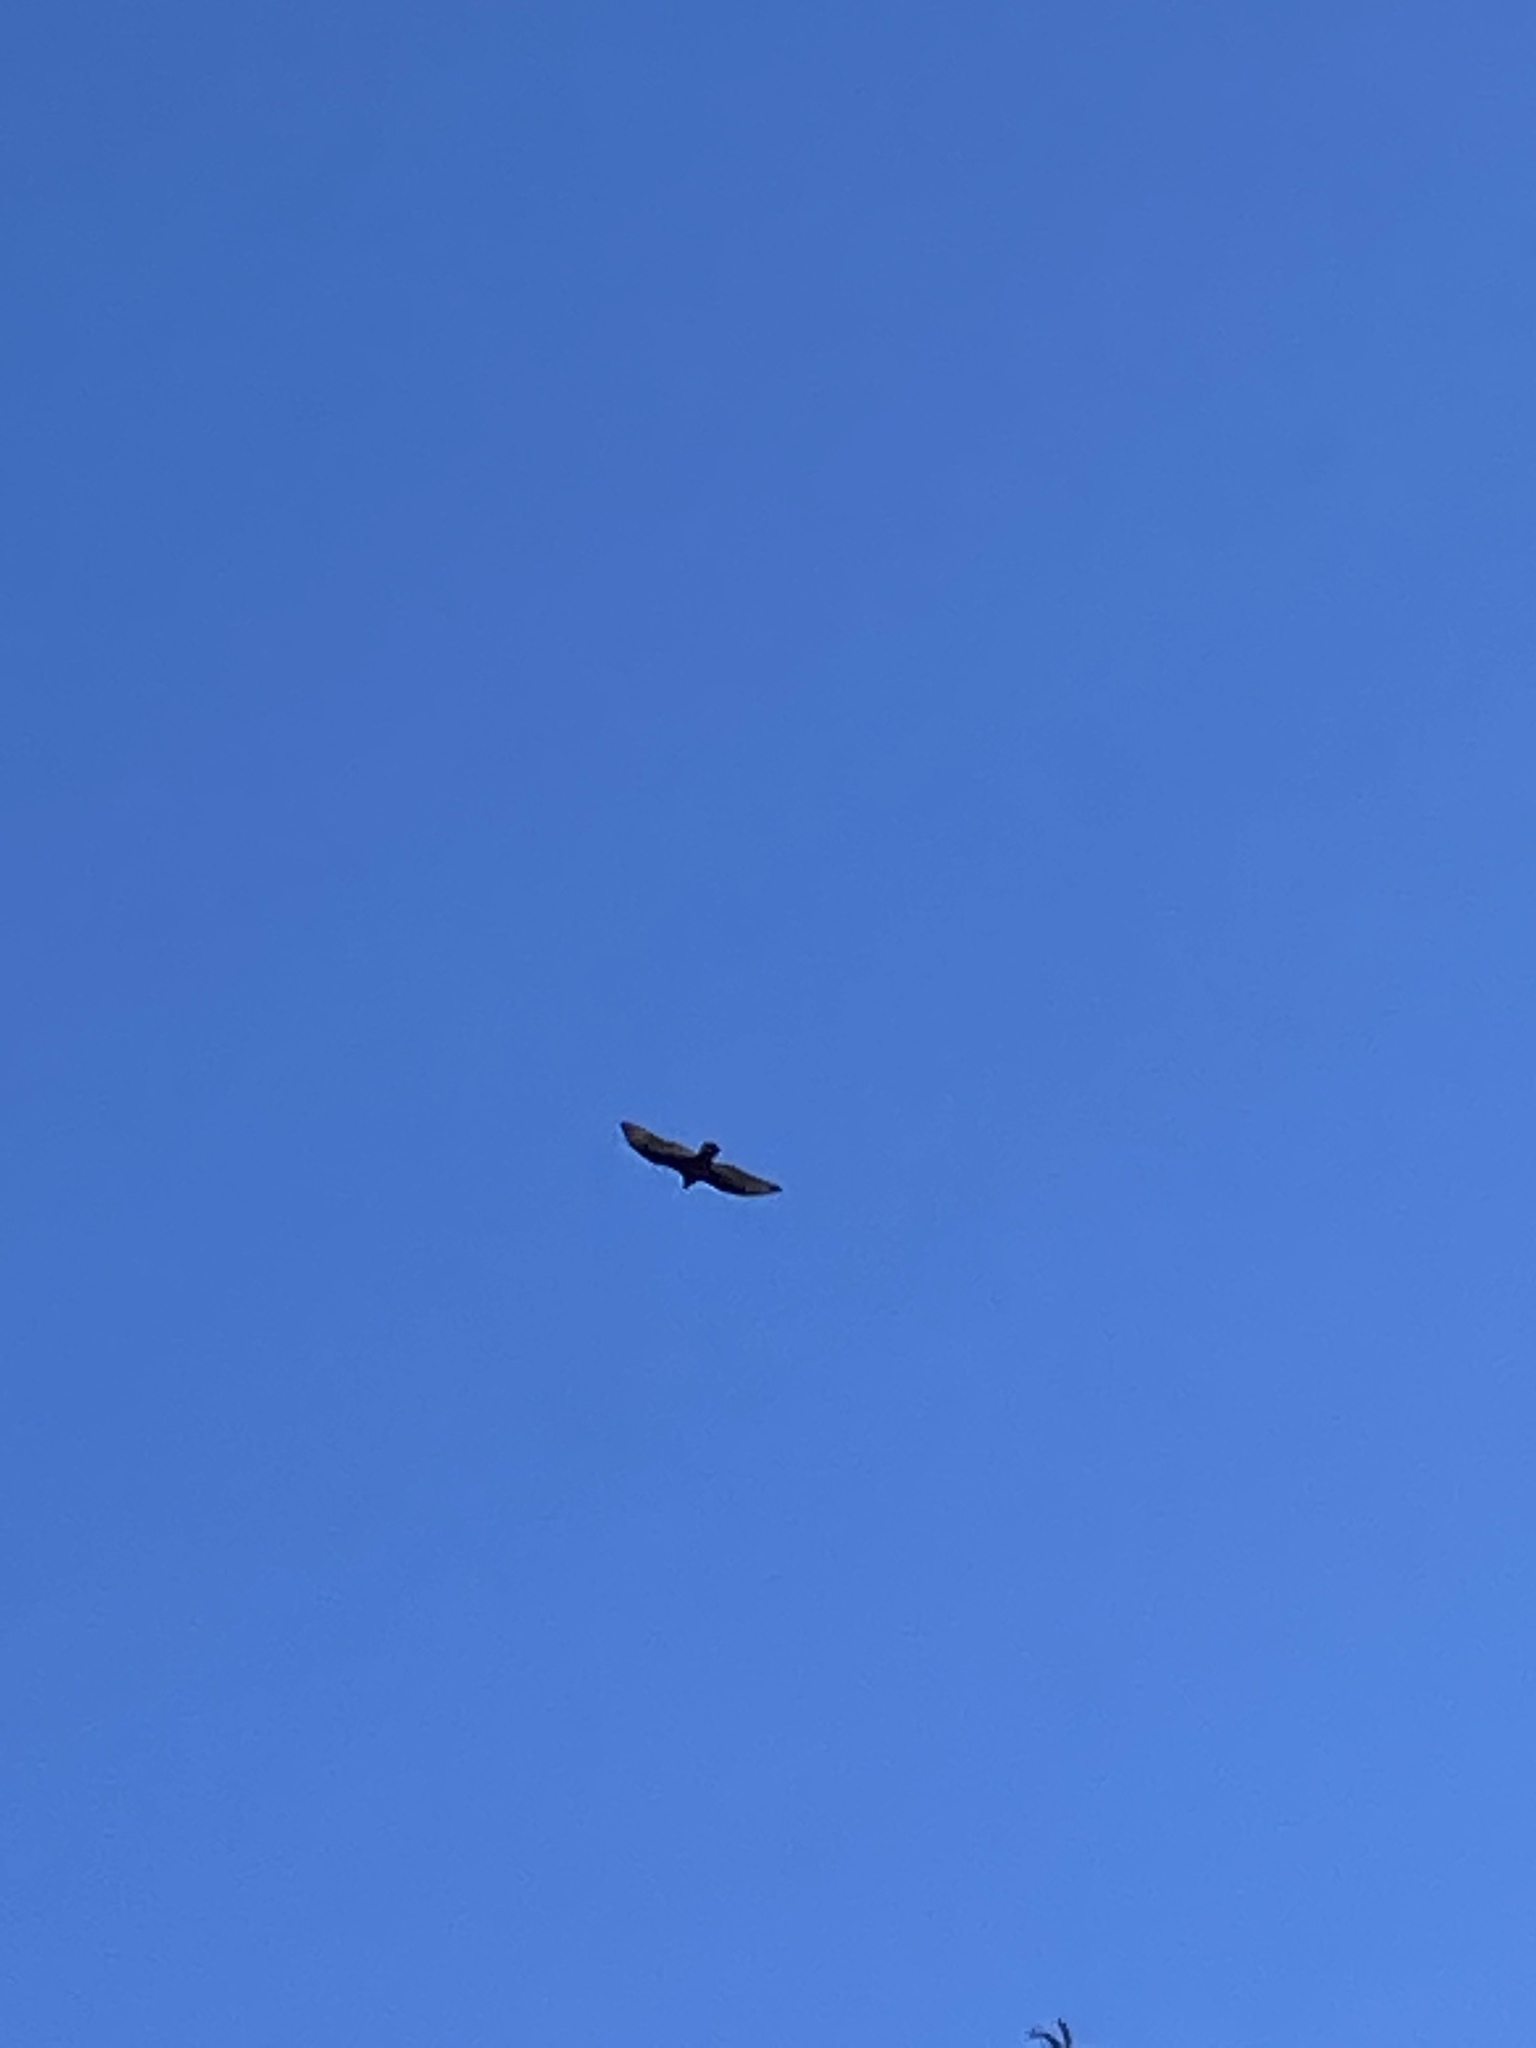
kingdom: Animalia
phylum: Chordata
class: Aves
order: Accipitriformes
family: Cathartidae
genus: Cathartes
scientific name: Cathartes aura
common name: Turkey vulture
